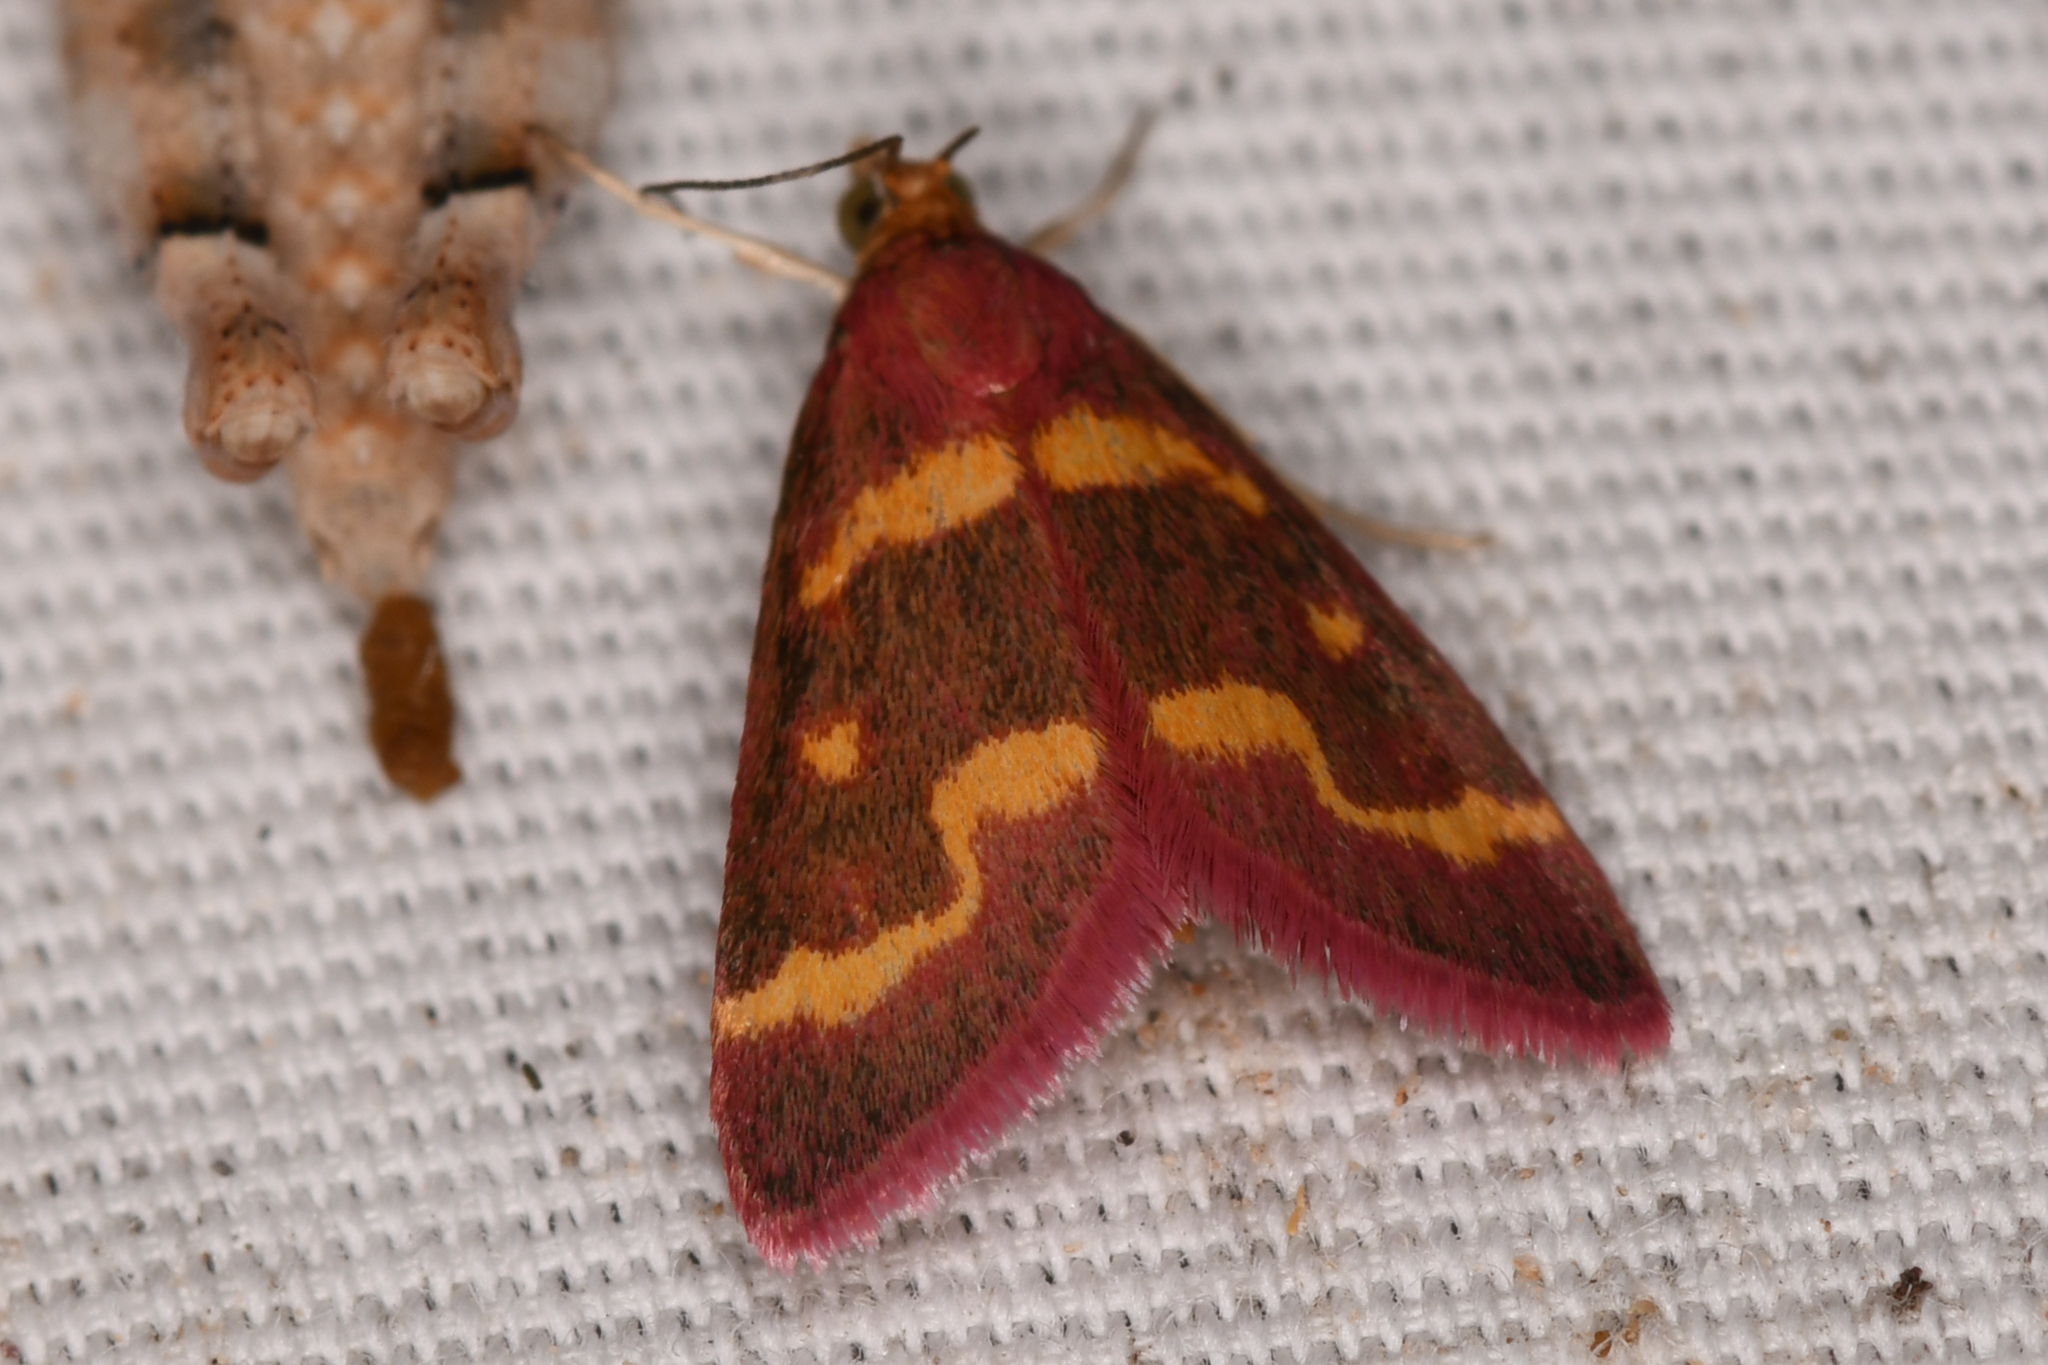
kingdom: Animalia
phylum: Arthropoda
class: Insecta
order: Lepidoptera
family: Crambidae
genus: Pyrausta
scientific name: Pyrausta tyralis
